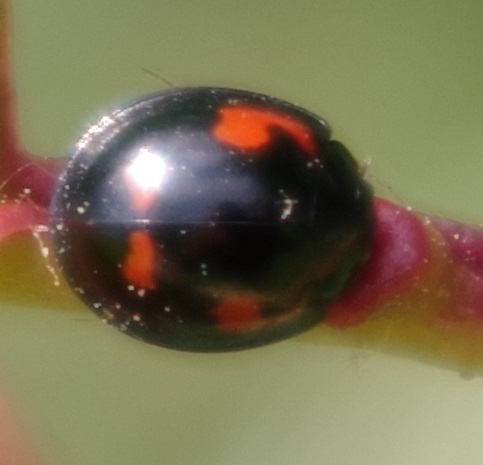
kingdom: Animalia
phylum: Arthropoda
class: Insecta
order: Coleoptera
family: Coccinellidae
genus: Brumus
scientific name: Brumus quadripustulatus
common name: Ladybird beetle
